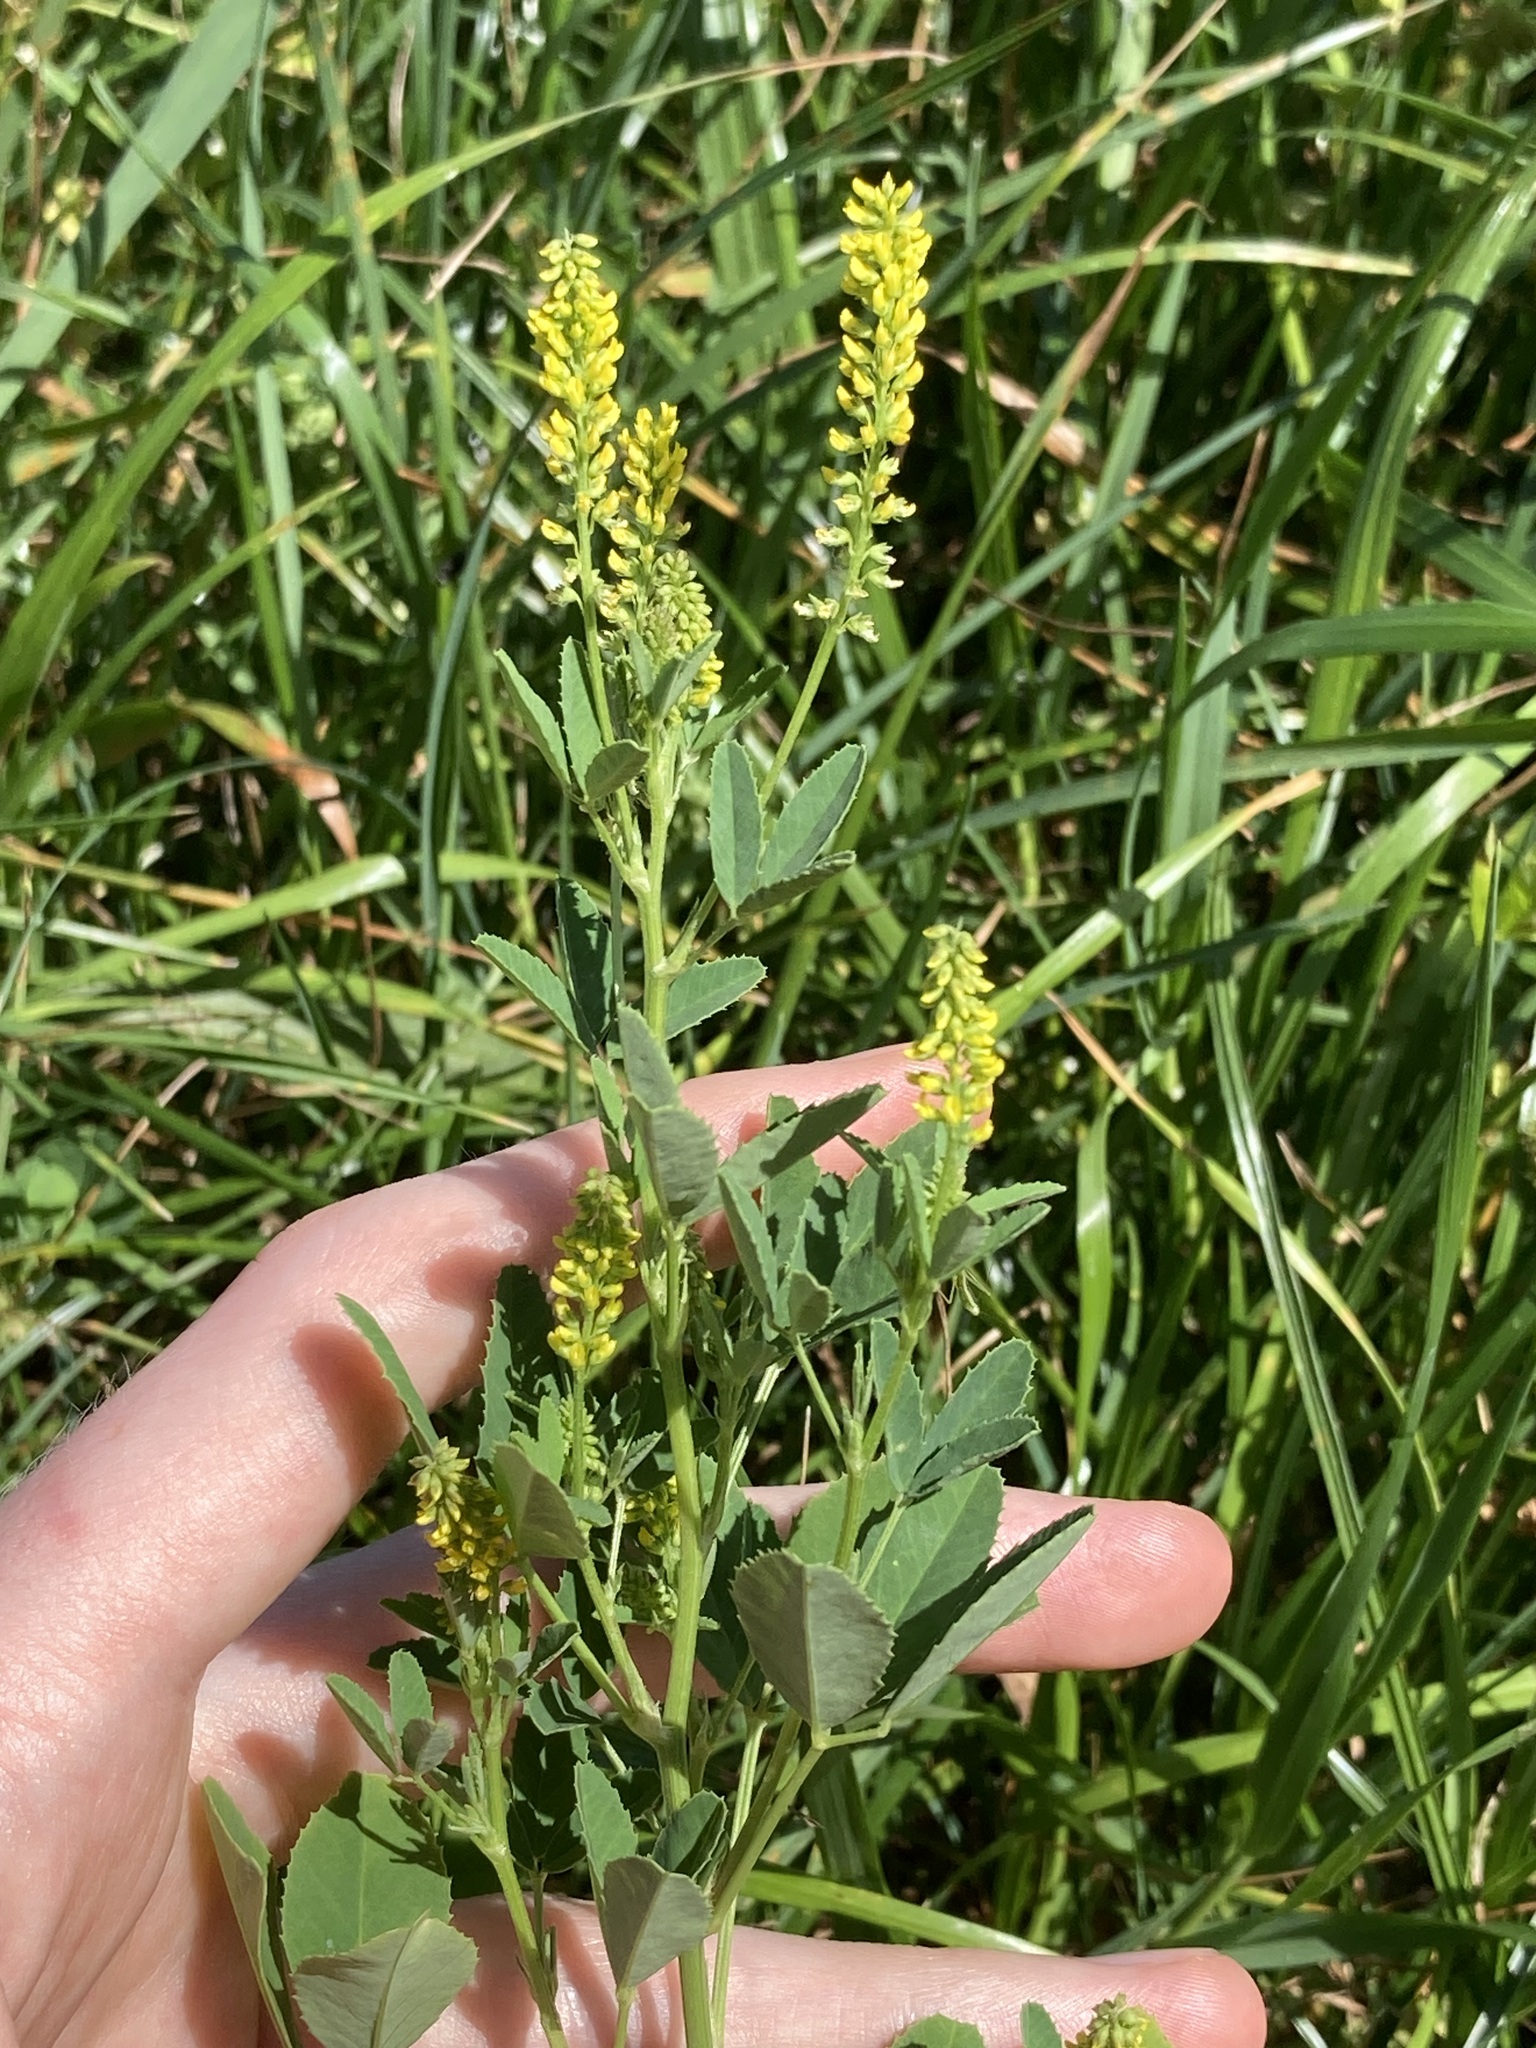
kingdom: Plantae
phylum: Tracheophyta
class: Magnoliopsida
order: Fabales
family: Fabaceae
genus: Melilotus
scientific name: Melilotus indicus
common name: Small melilot
